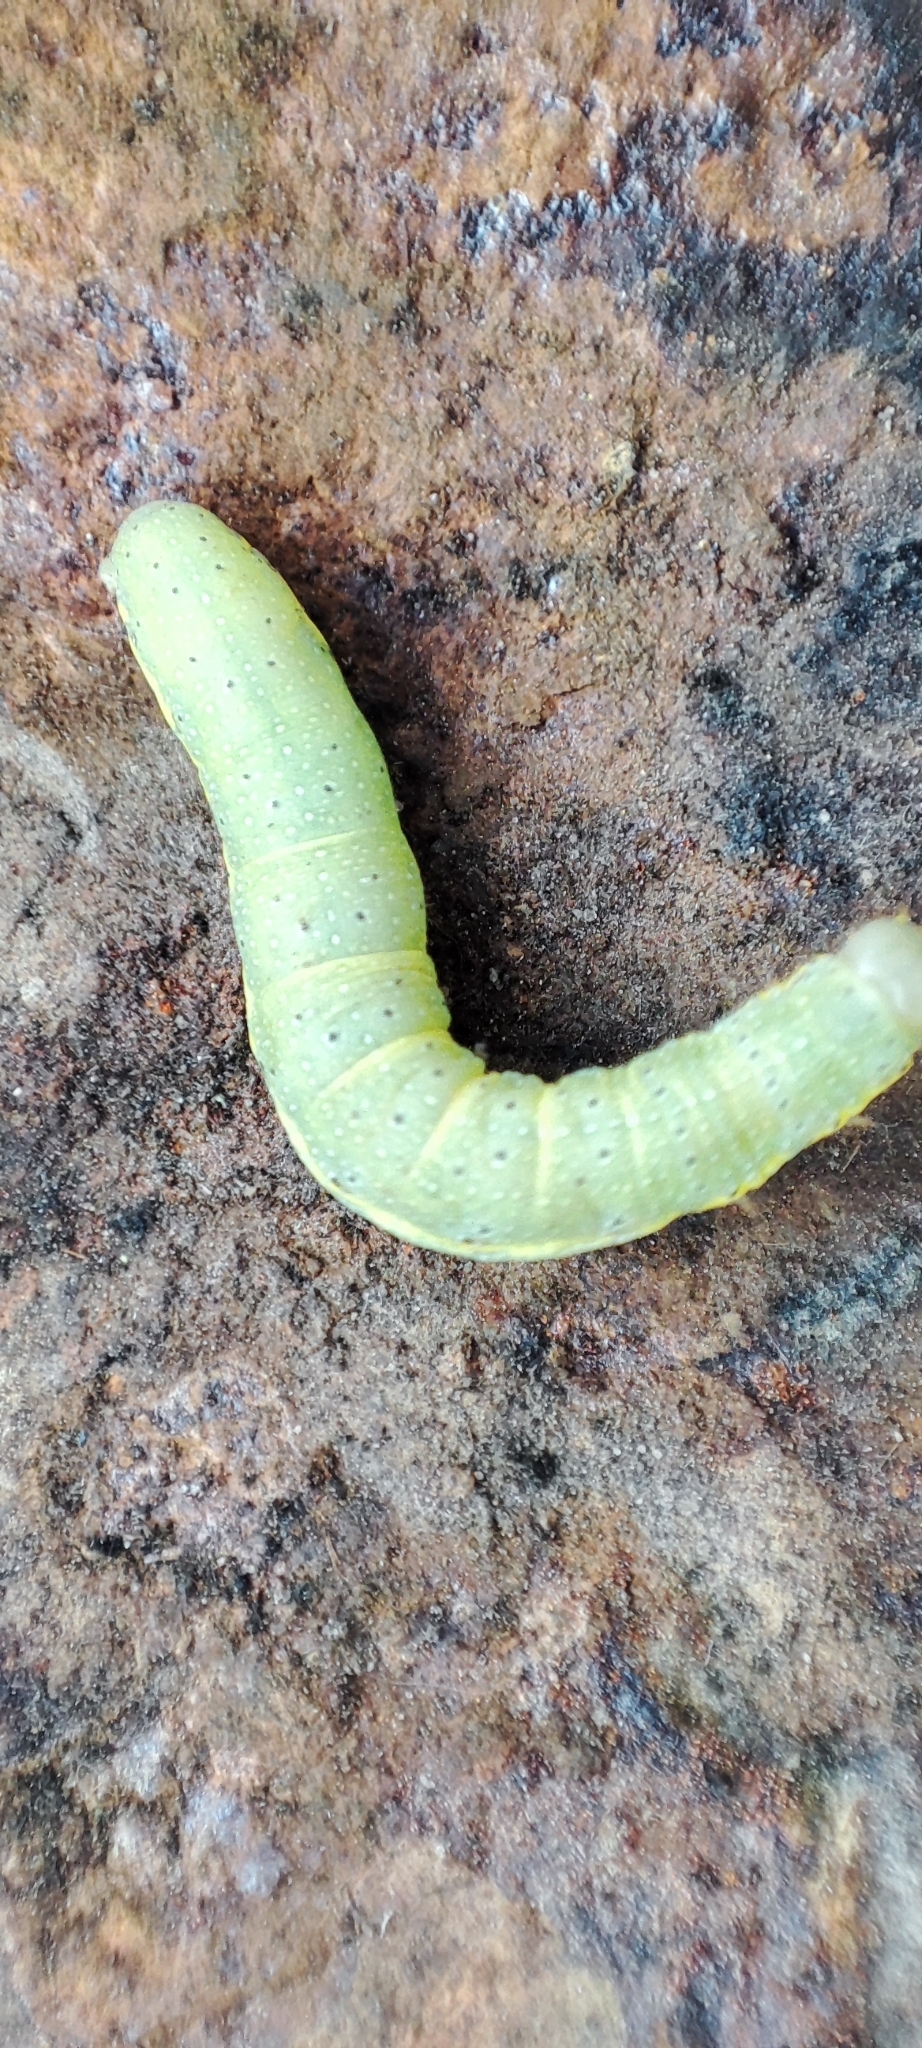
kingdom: Animalia
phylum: Arthropoda
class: Insecta
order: Lepidoptera
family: Noctuidae
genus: Lacanobia
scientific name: Lacanobia oleracea
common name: Bright-line brown-eye
